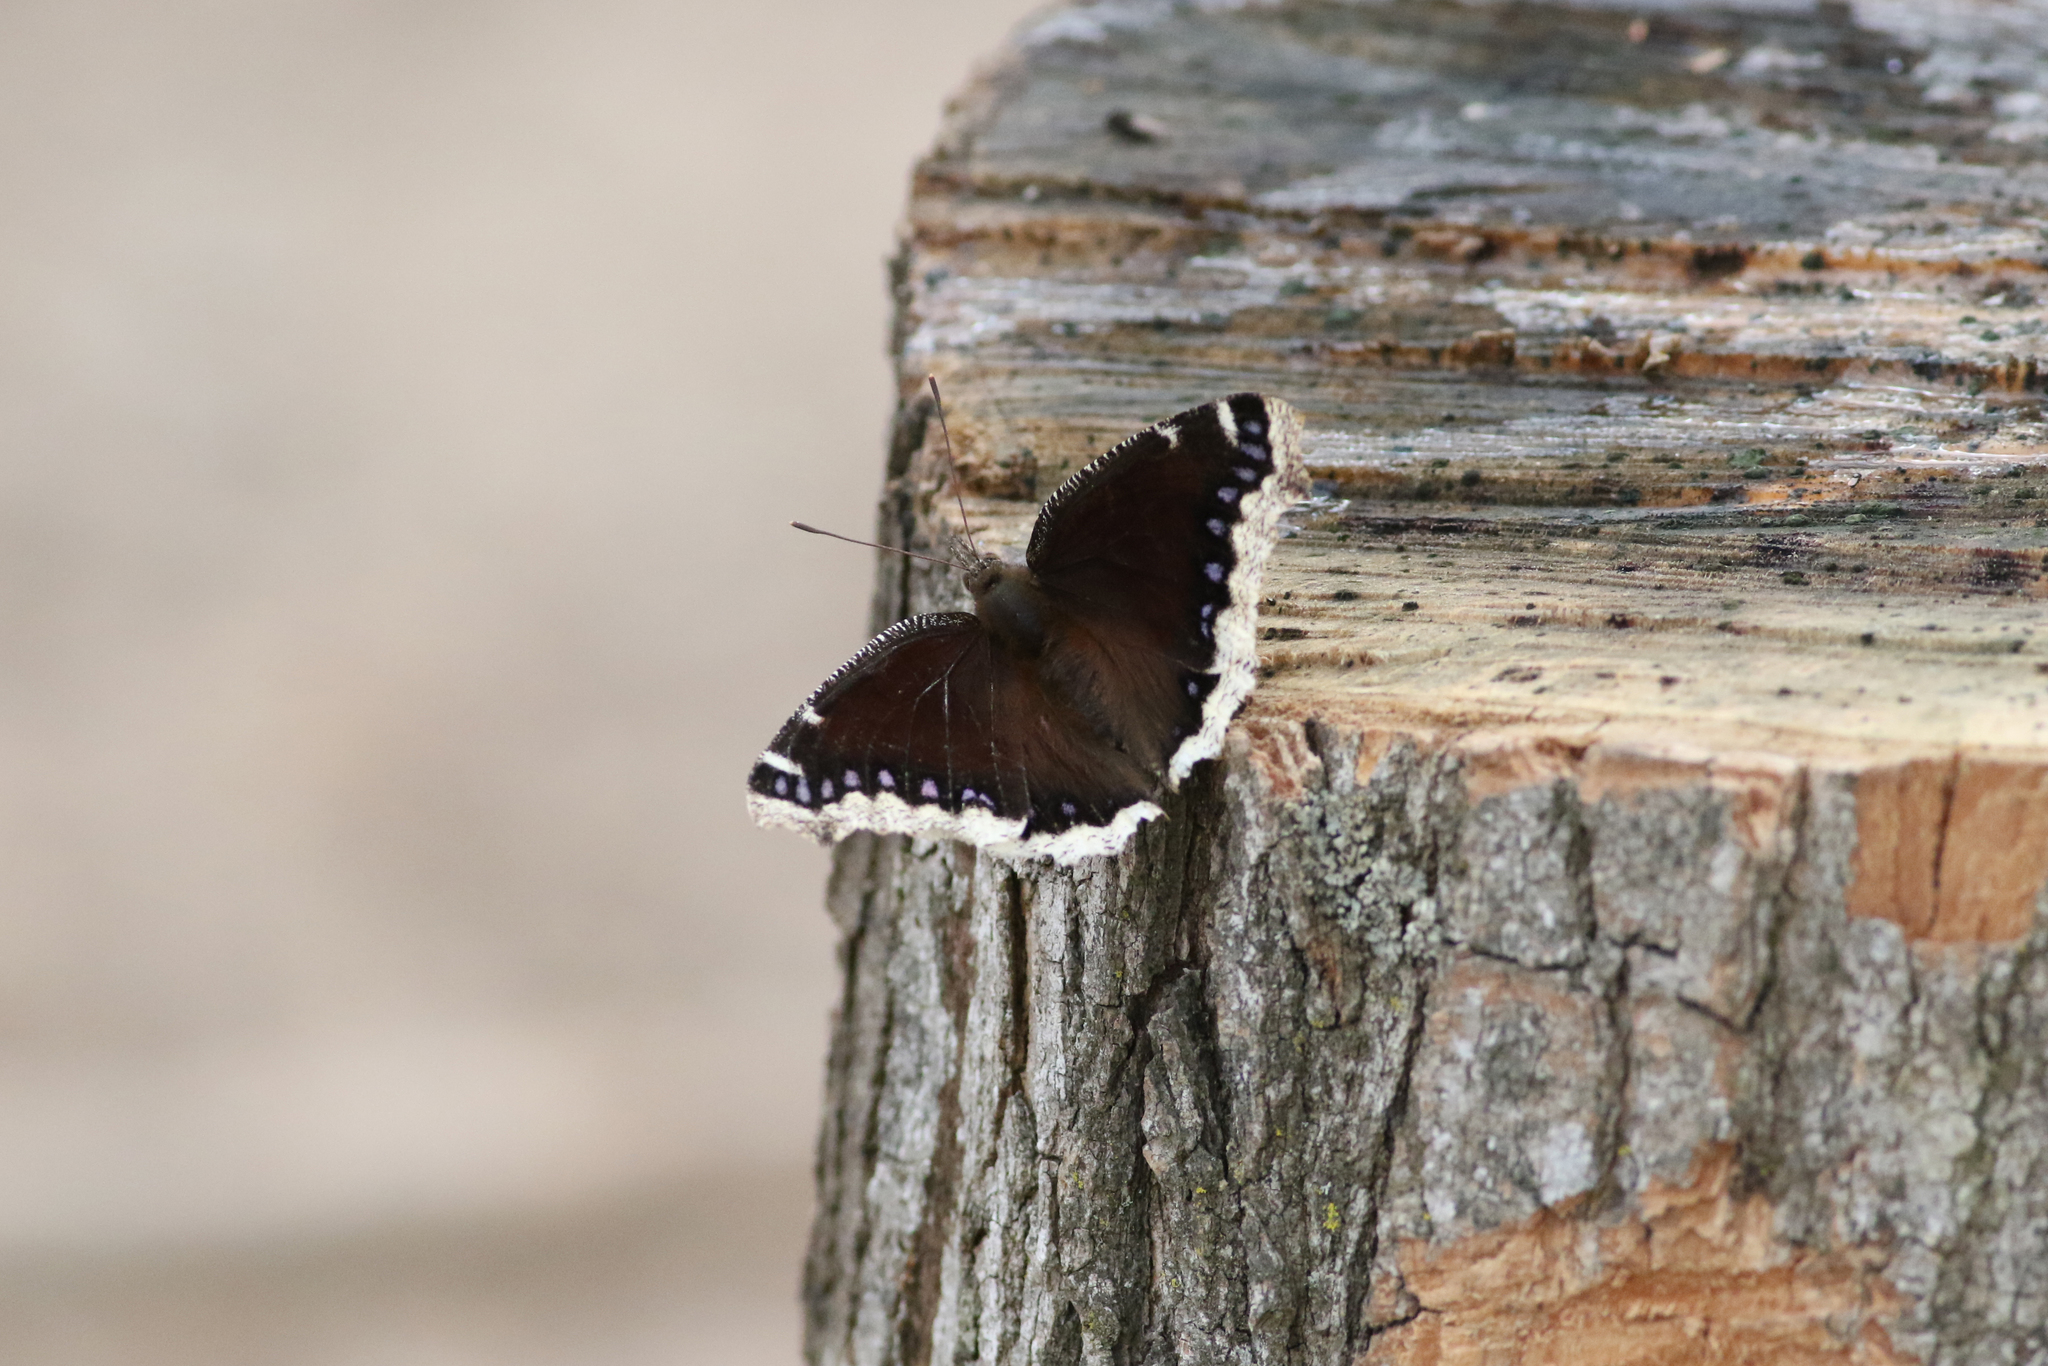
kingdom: Animalia
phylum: Arthropoda
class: Insecta
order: Lepidoptera
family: Nymphalidae
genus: Nymphalis
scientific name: Nymphalis antiopa
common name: Camberwell beauty
